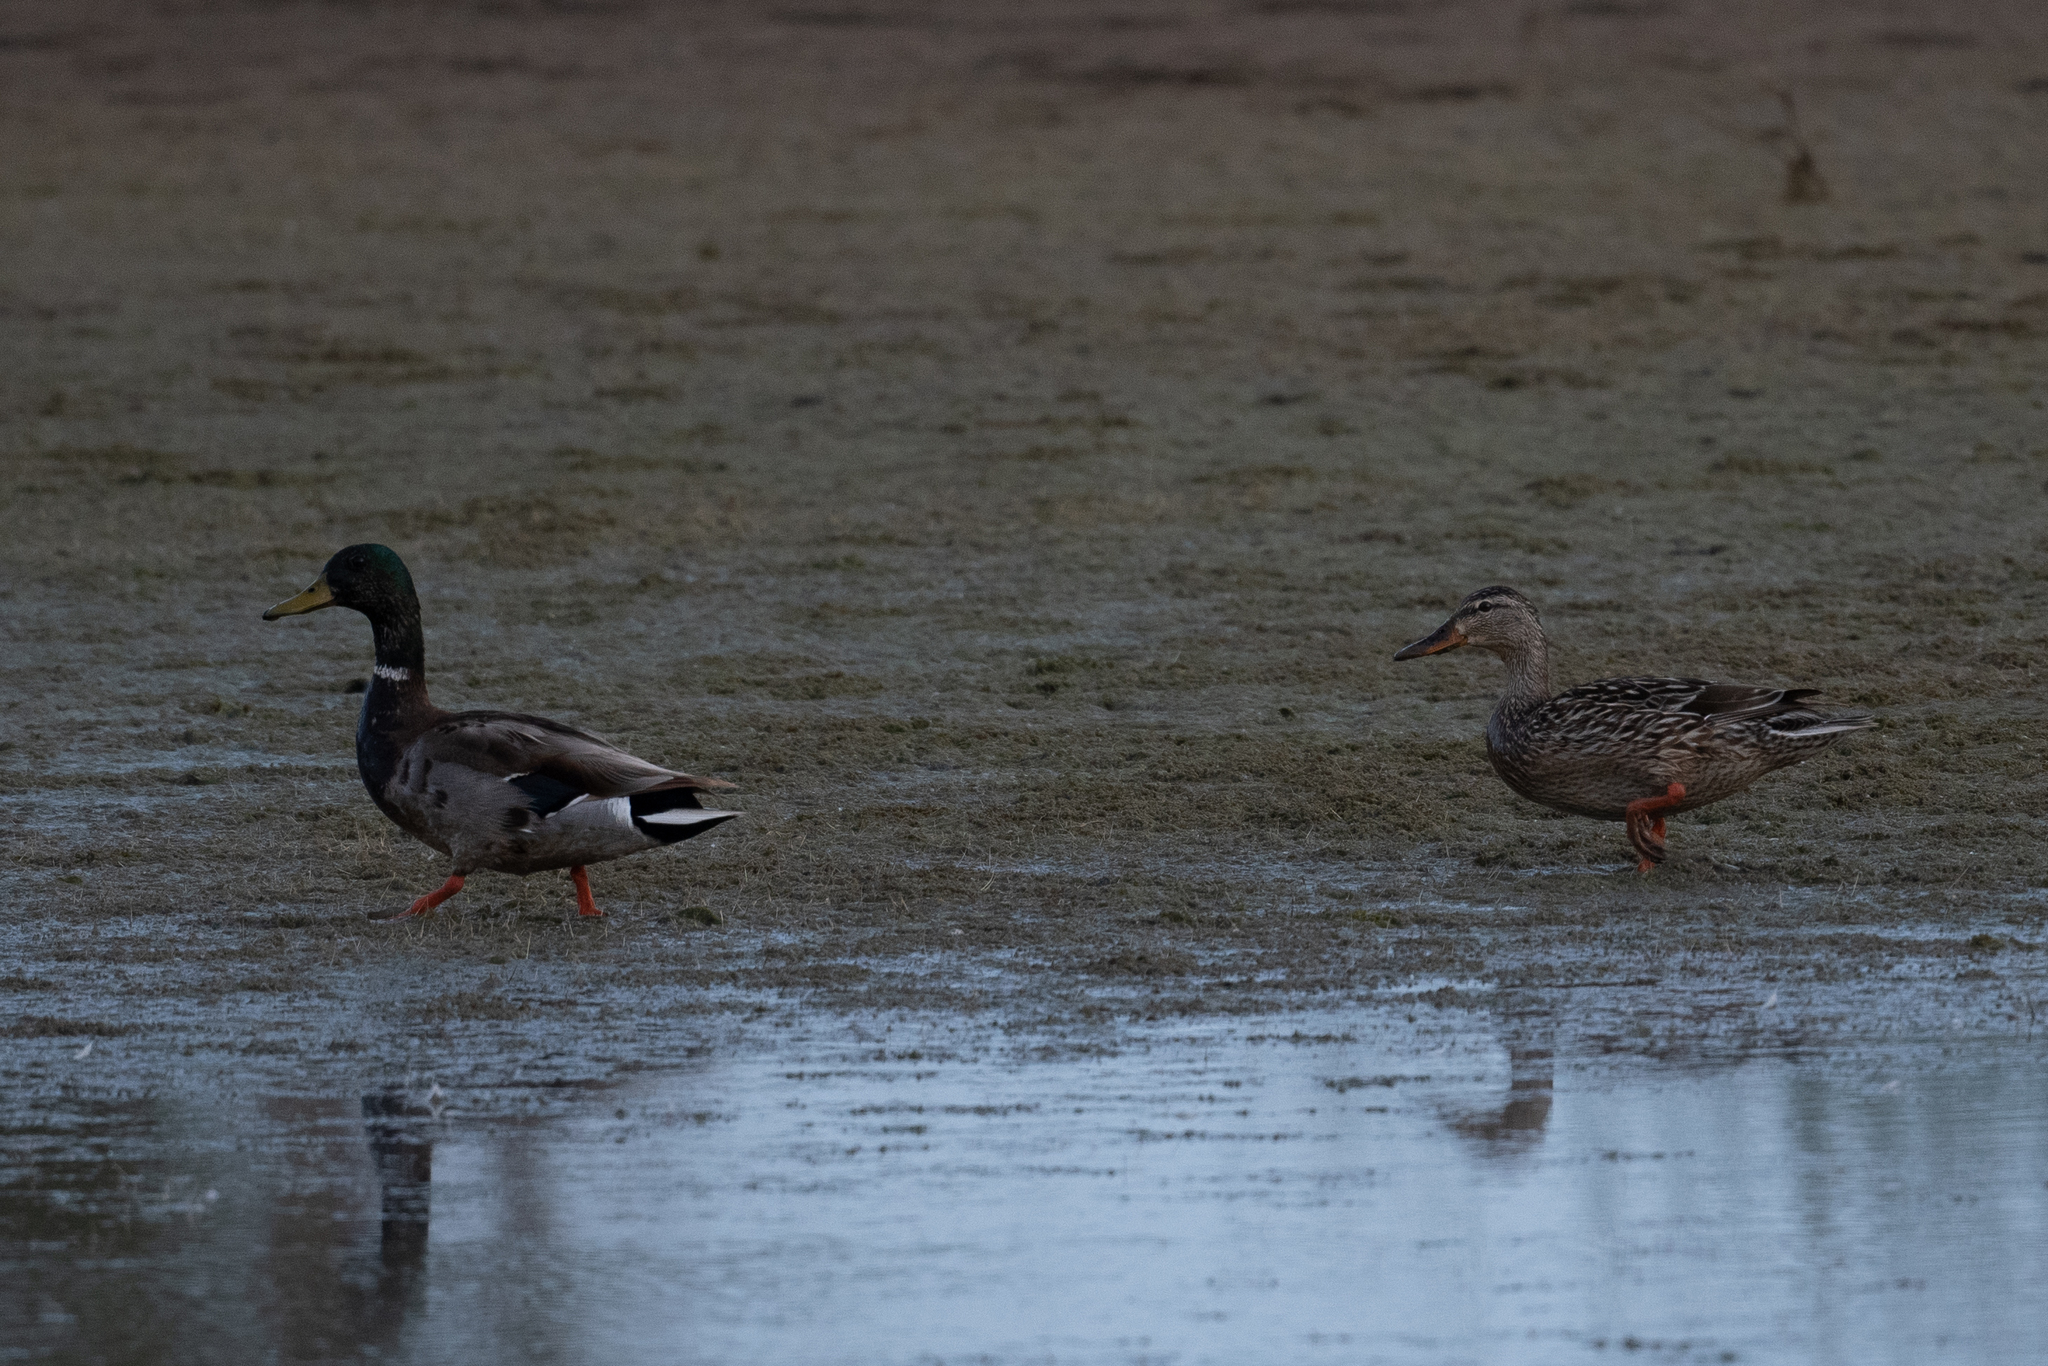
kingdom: Animalia
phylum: Chordata
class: Aves
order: Anseriformes
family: Anatidae
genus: Anas
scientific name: Anas platyrhynchos
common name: Mallard
